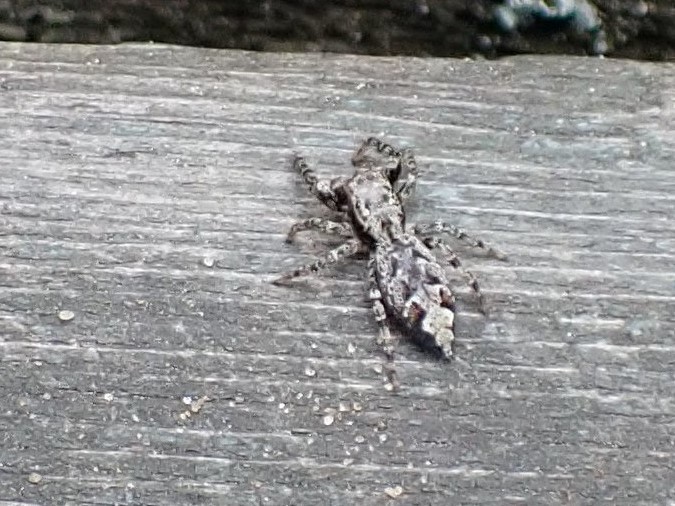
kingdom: Animalia
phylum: Arthropoda
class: Arachnida
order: Araneae
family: Salticidae
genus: Marpissa
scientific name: Marpissa muscosa
